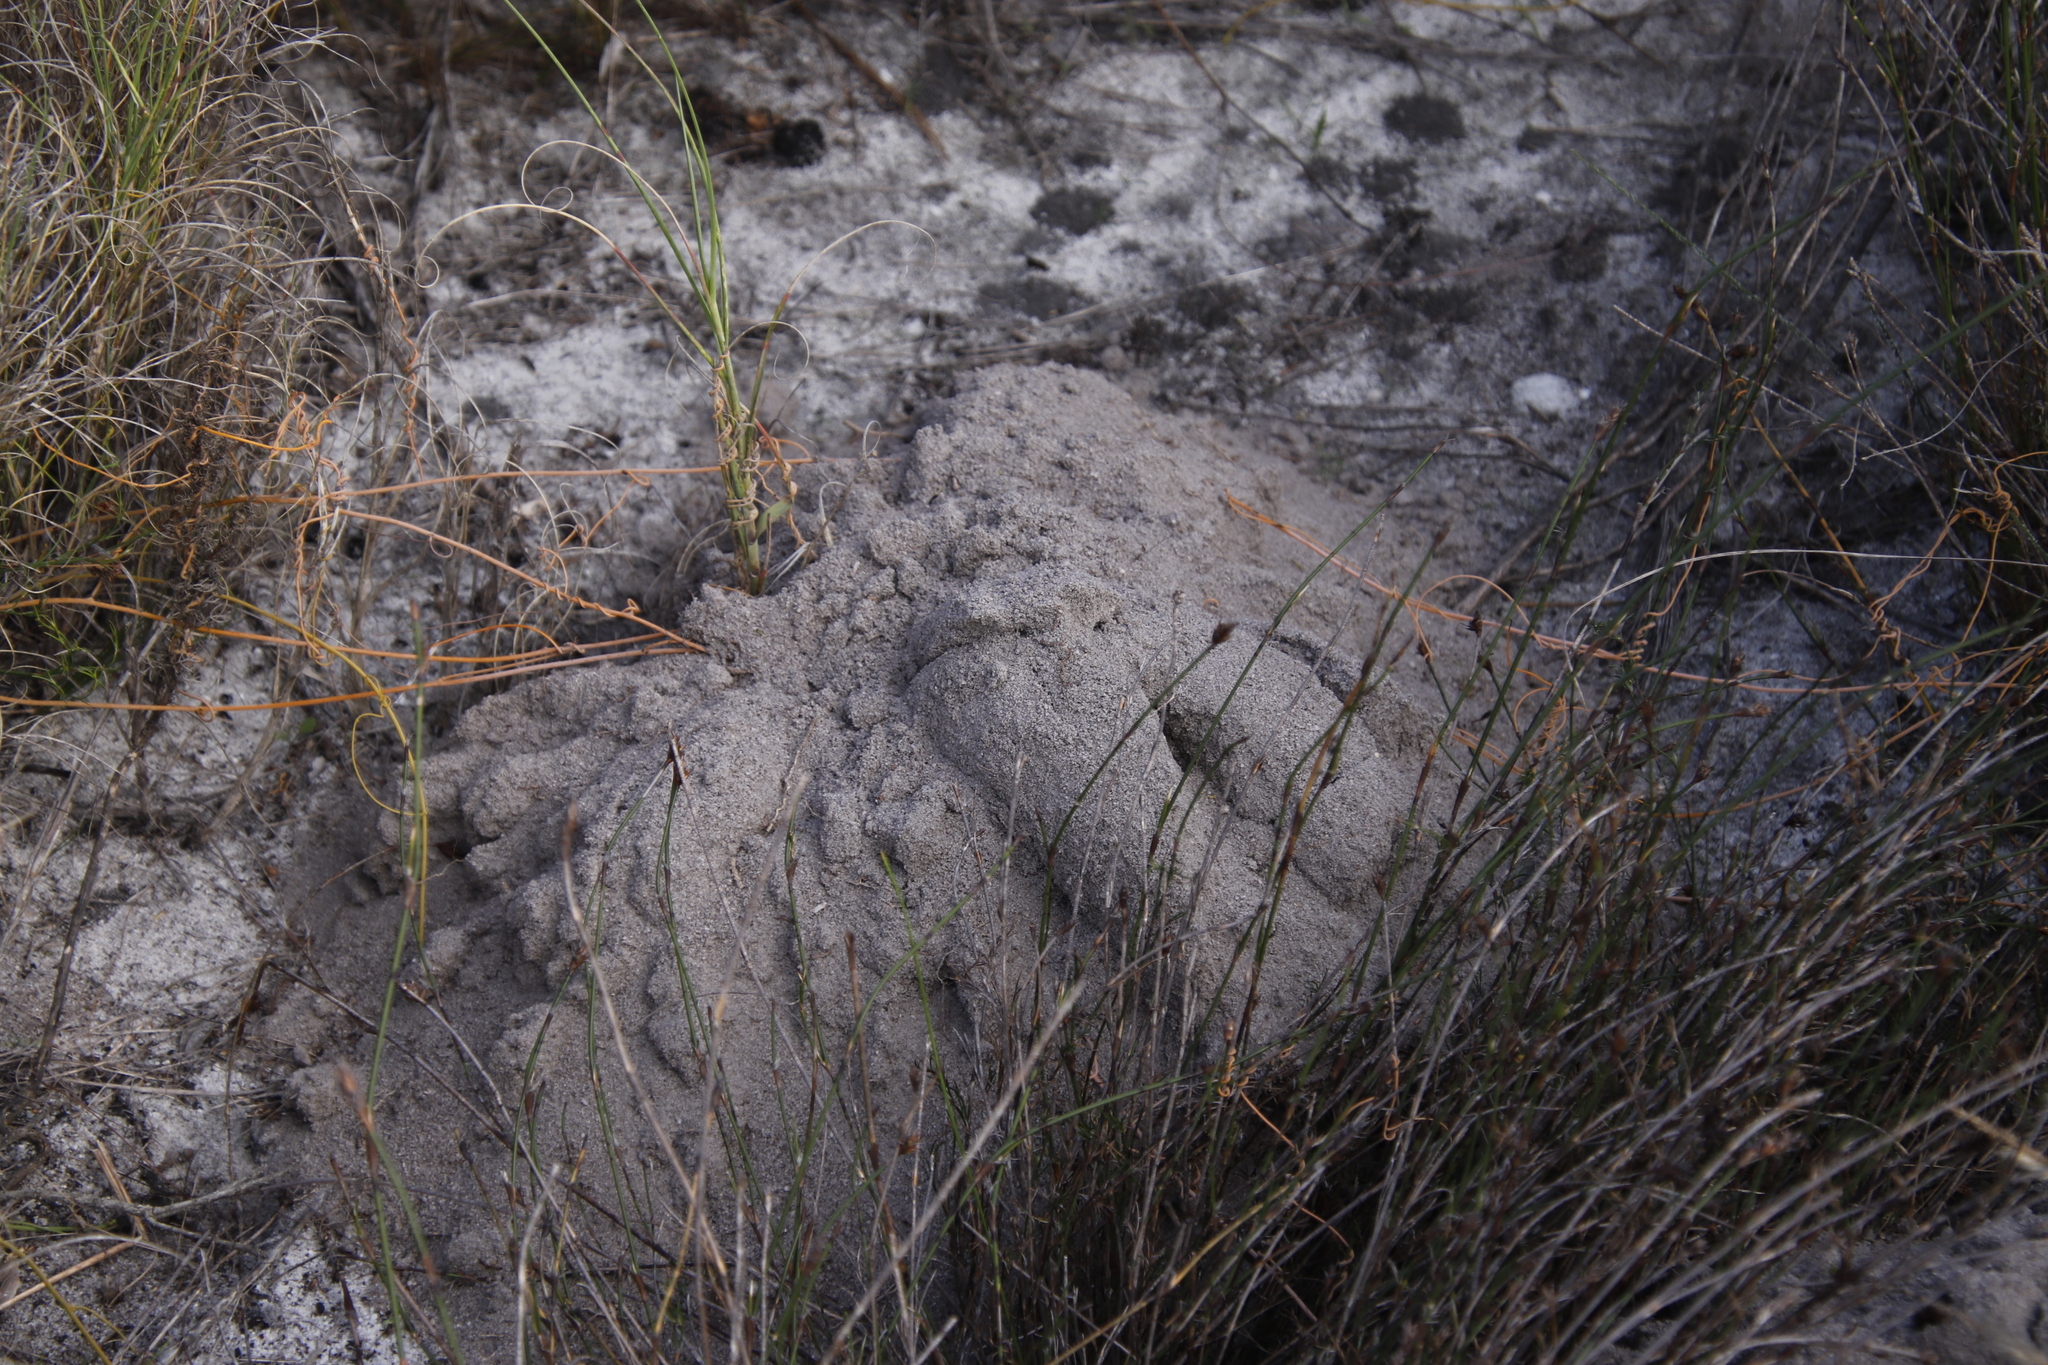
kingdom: Animalia
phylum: Chordata
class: Mammalia
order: Rodentia
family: Bathyergidae
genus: Bathyergus
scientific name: Bathyergus suillus
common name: Cape dune mole rat
